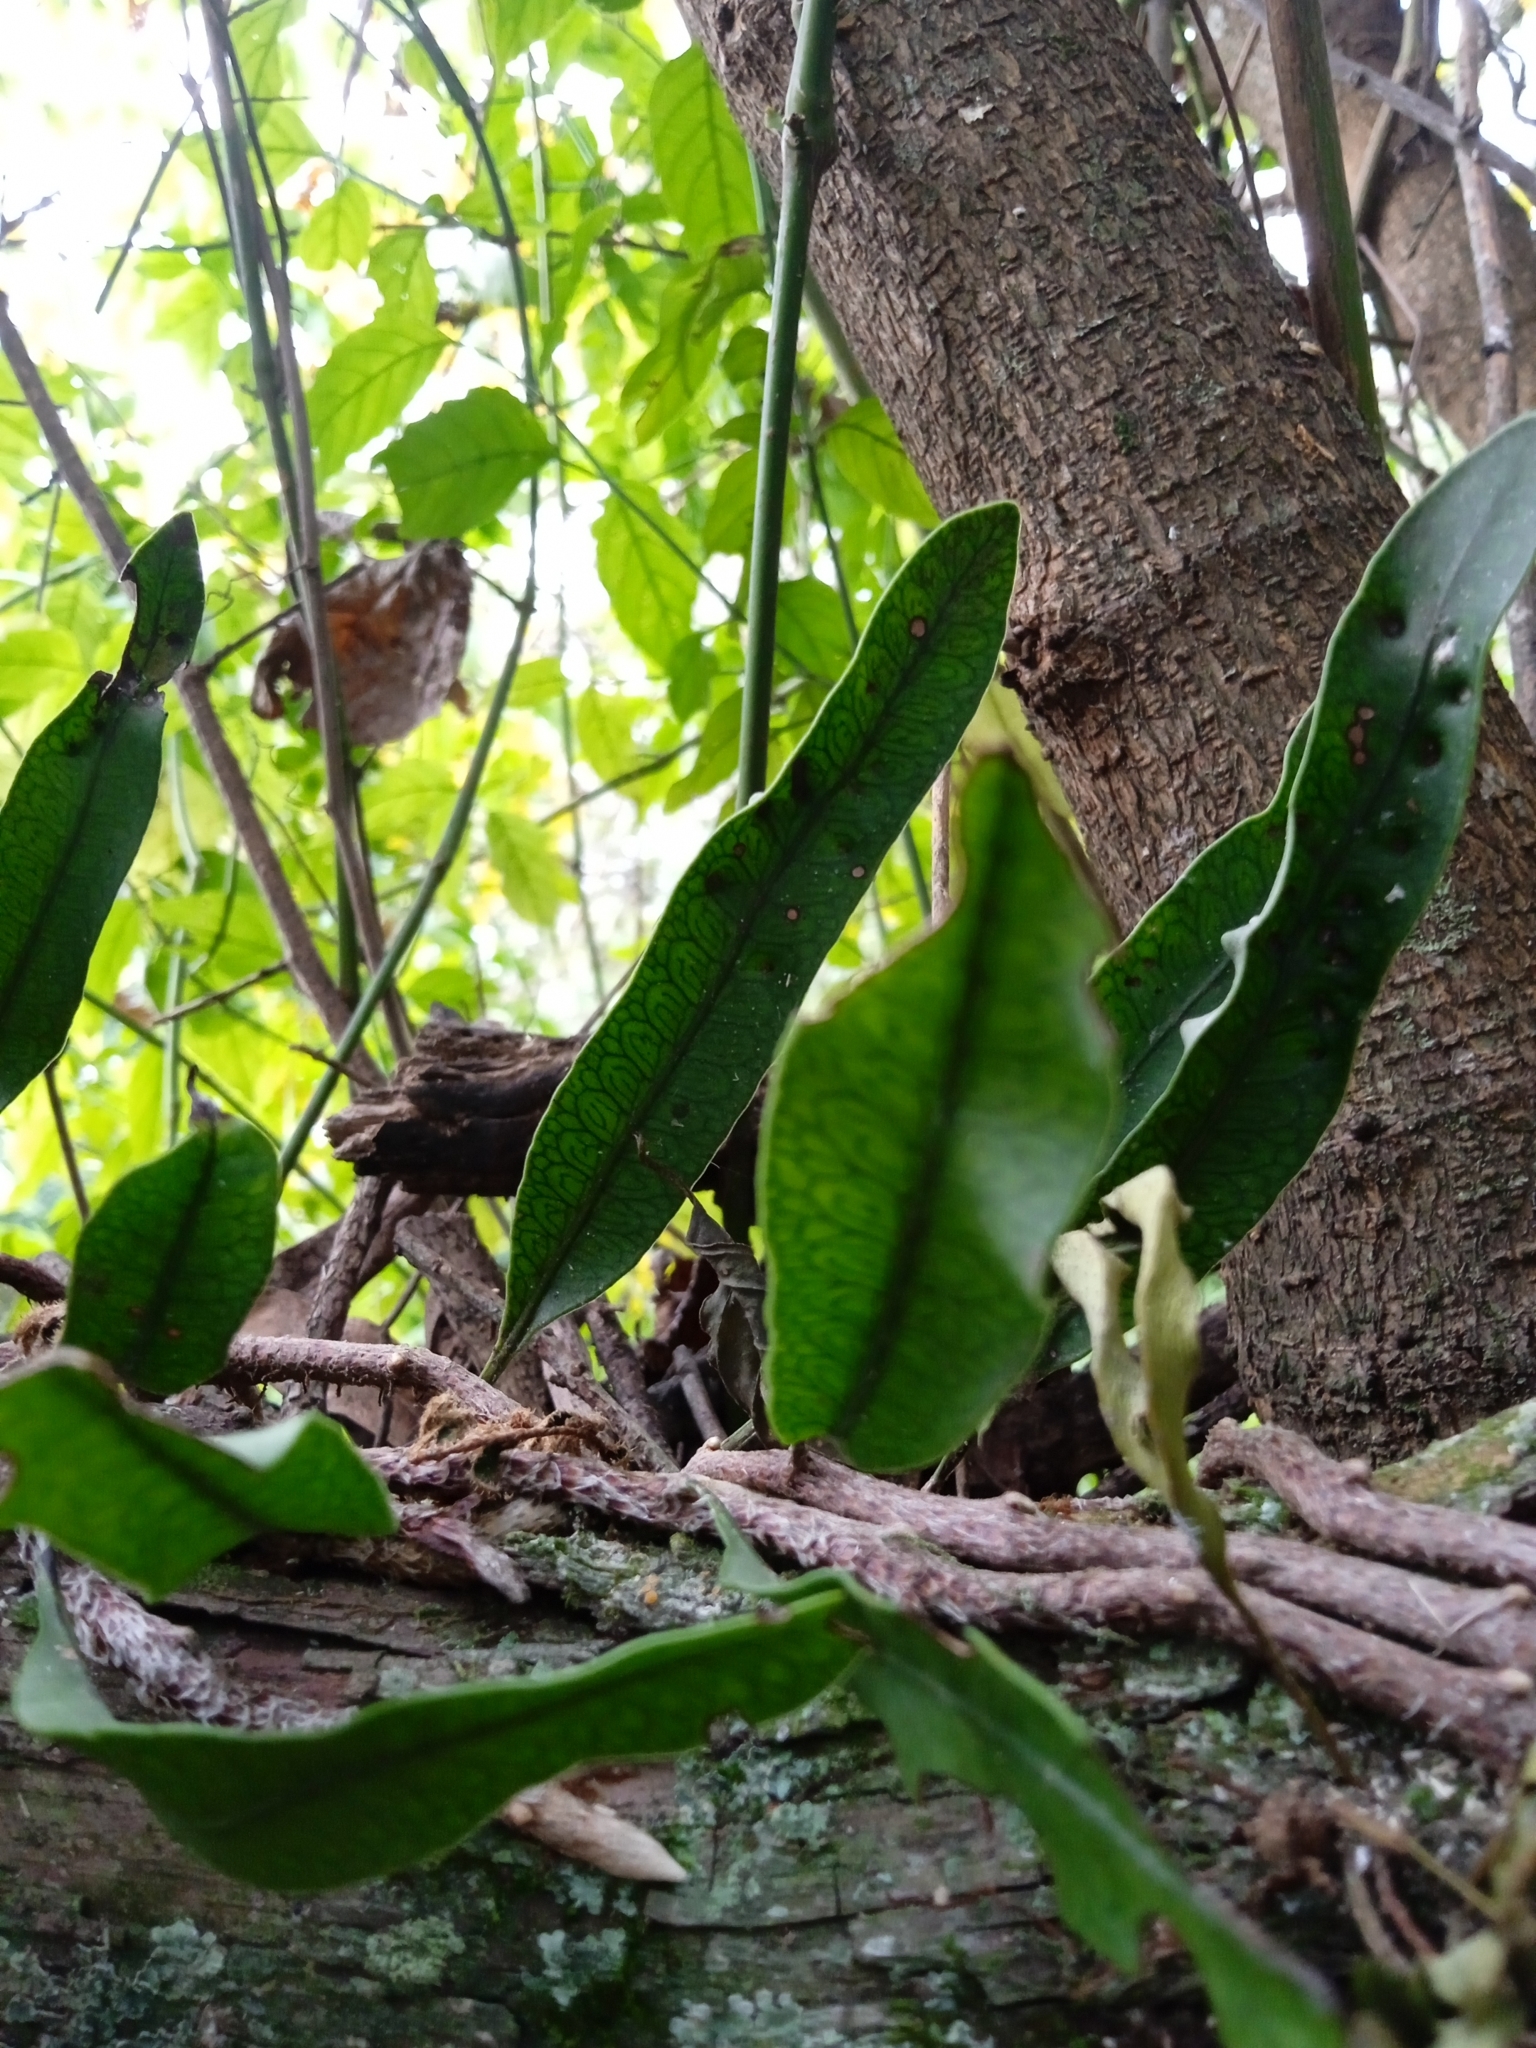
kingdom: Plantae
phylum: Tracheophyta
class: Polypodiopsida
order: Polypodiales
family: Polypodiaceae
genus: Microgramma
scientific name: Microgramma squamulosa
